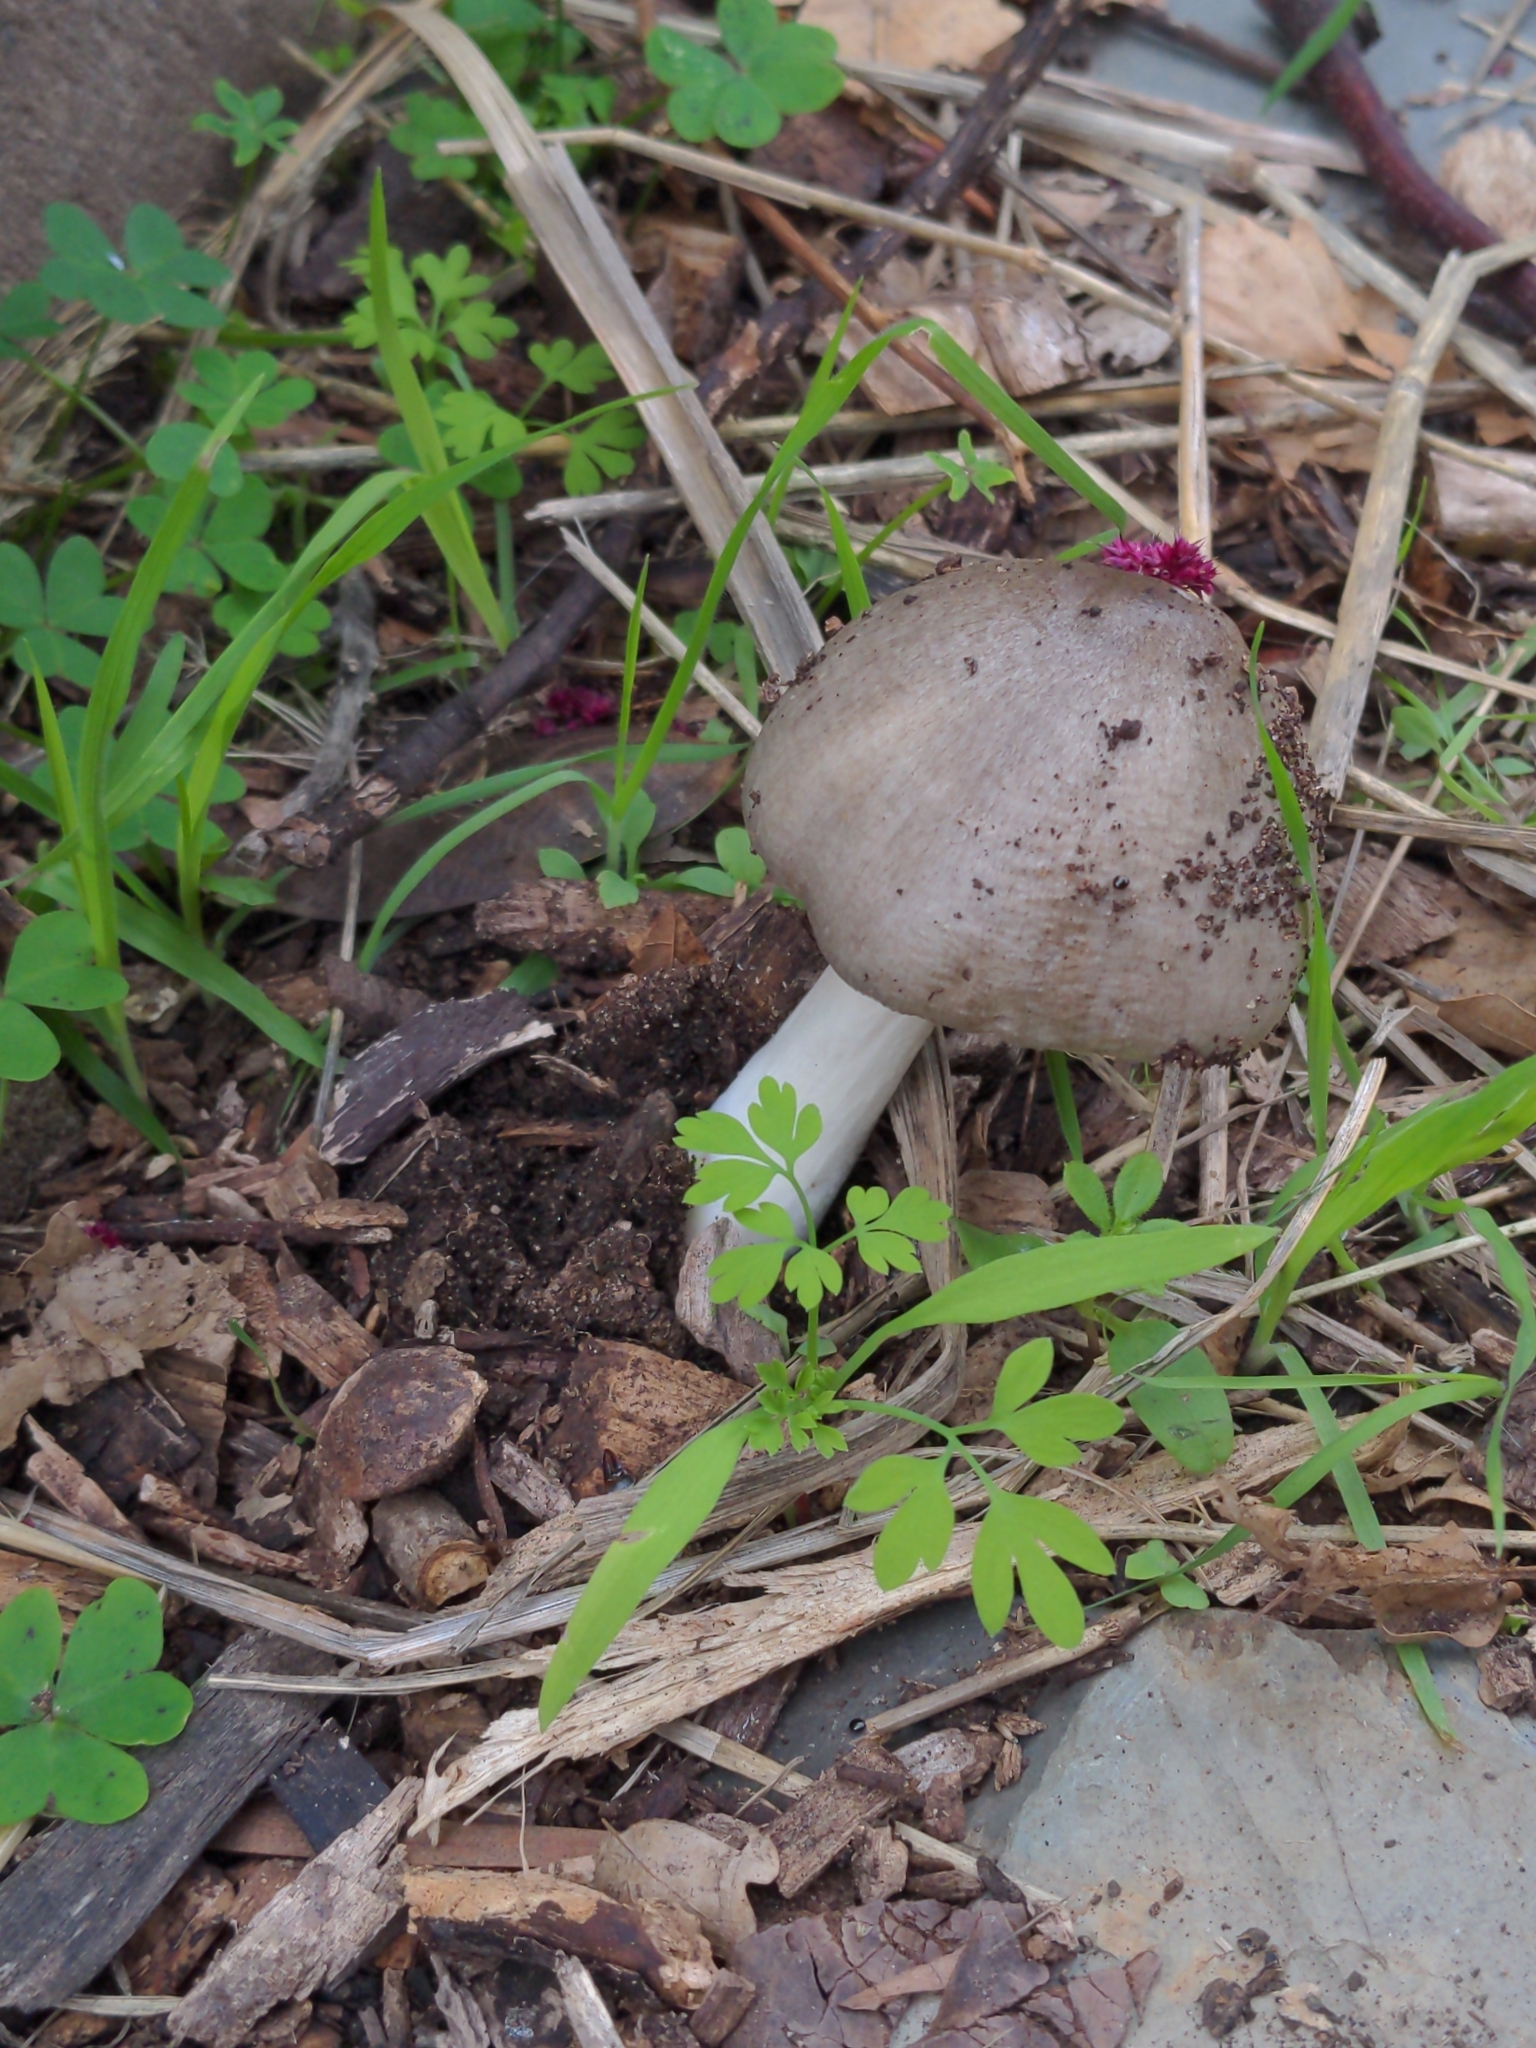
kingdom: Fungi
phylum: Basidiomycota
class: Agaricomycetes
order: Agaricales
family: Pluteaceae
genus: Volvopluteus
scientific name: Volvopluteus gloiocephalus
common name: Stubble rosegill
